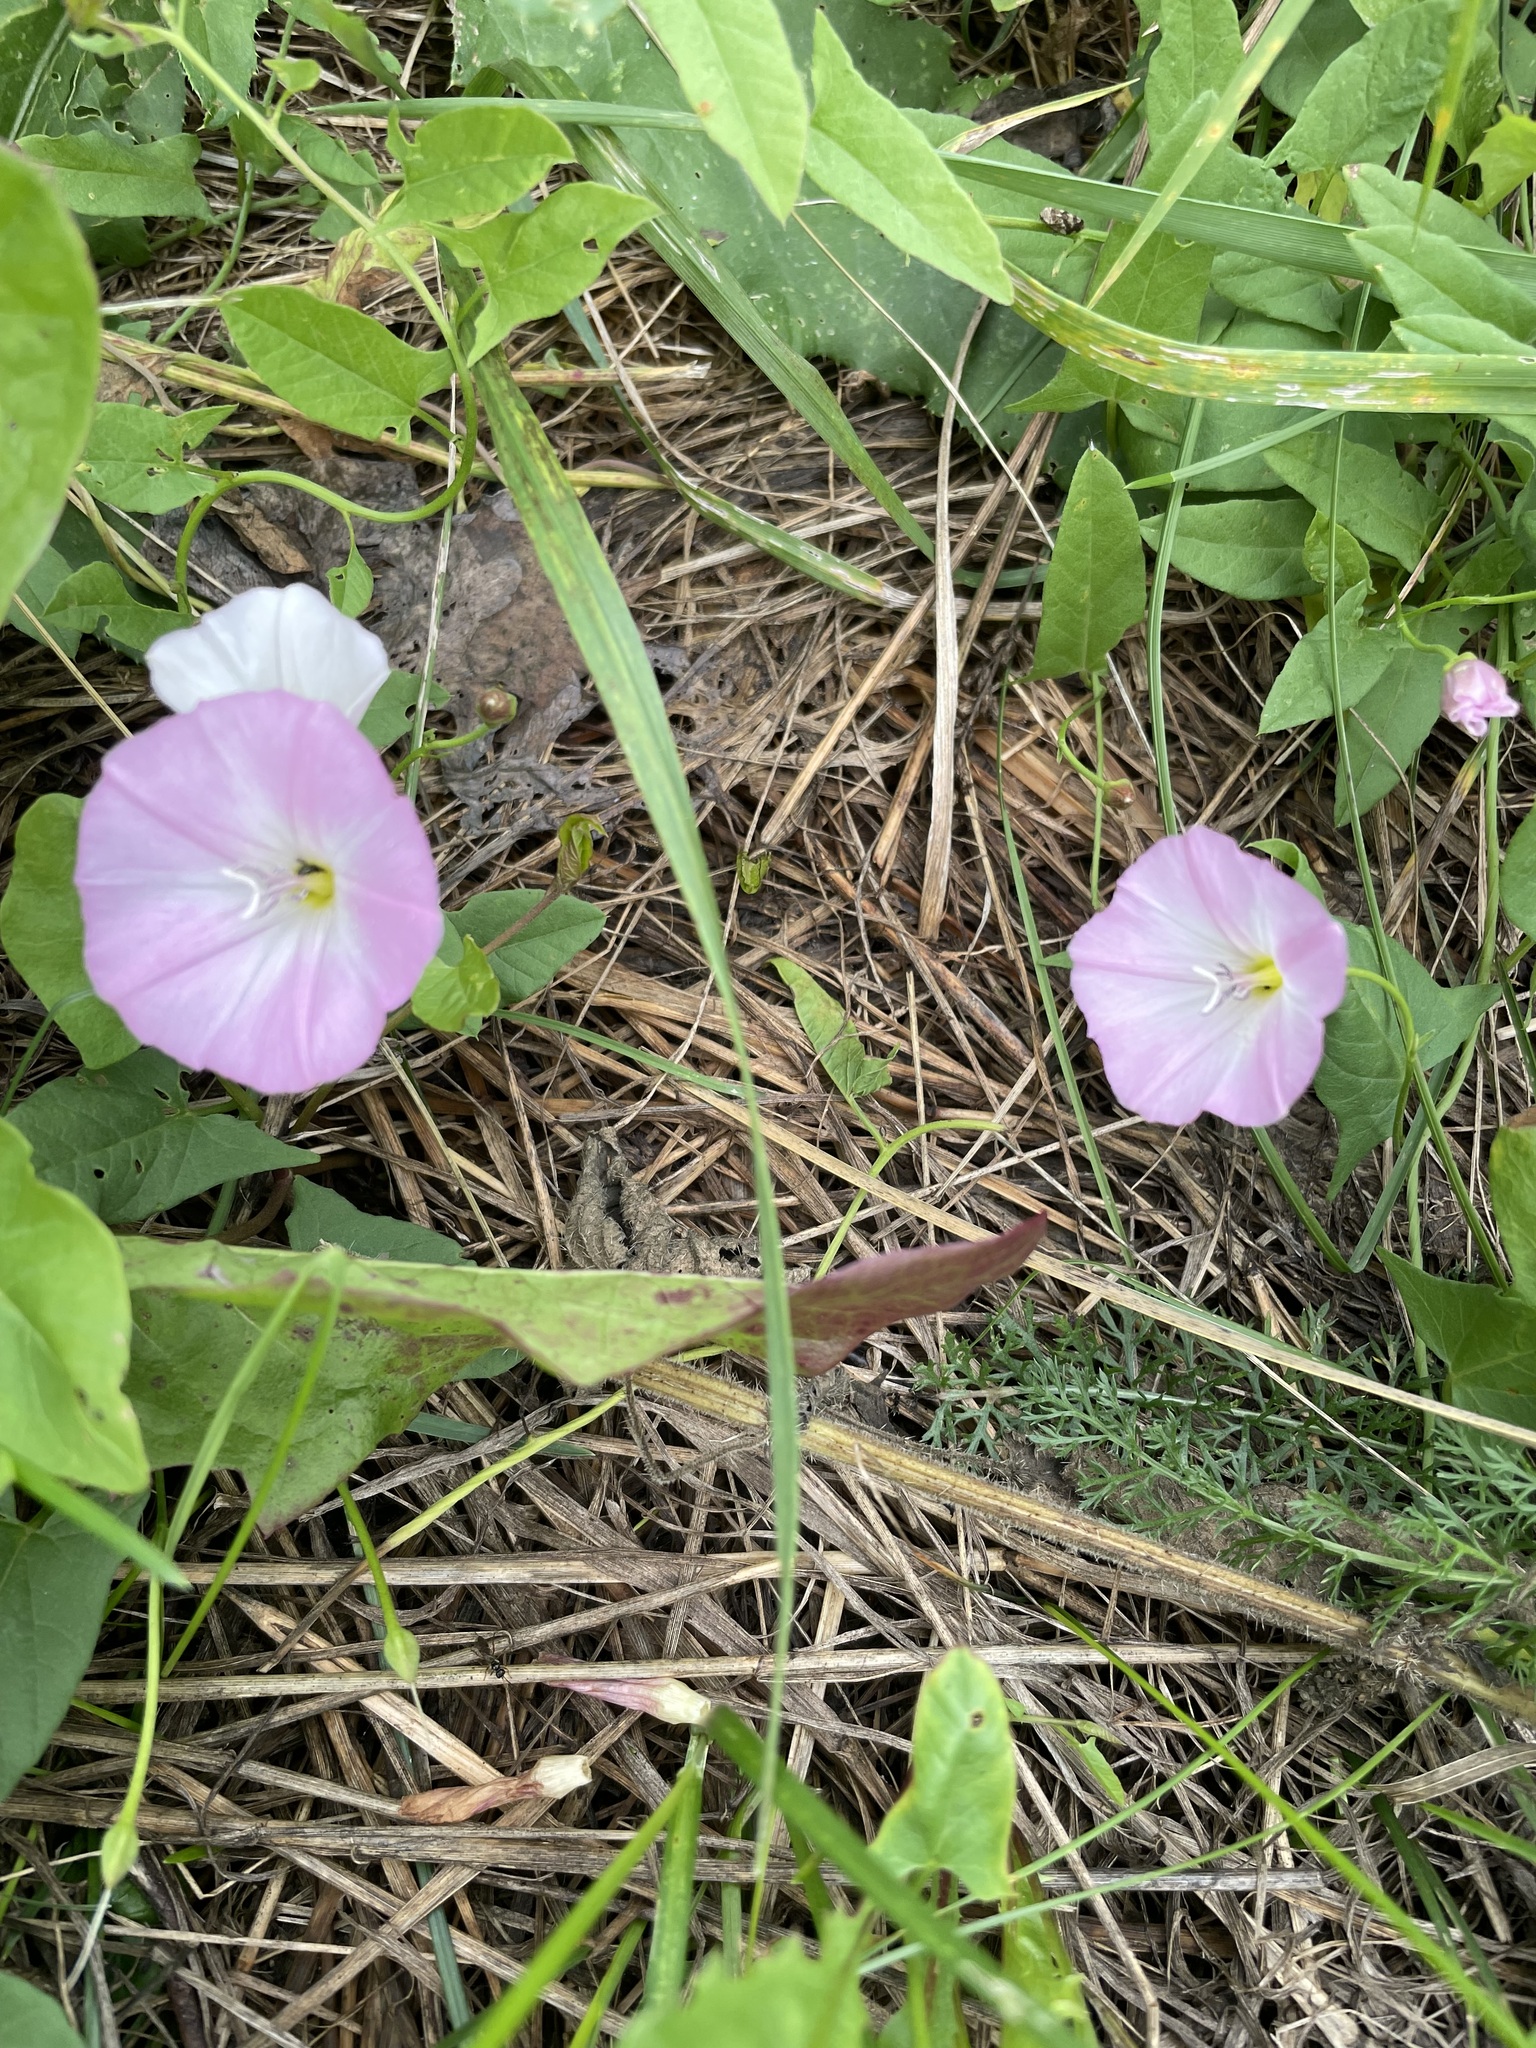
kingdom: Plantae
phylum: Tracheophyta
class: Magnoliopsida
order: Solanales
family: Convolvulaceae
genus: Convolvulus
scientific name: Convolvulus arvensis
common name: Field bindweed
